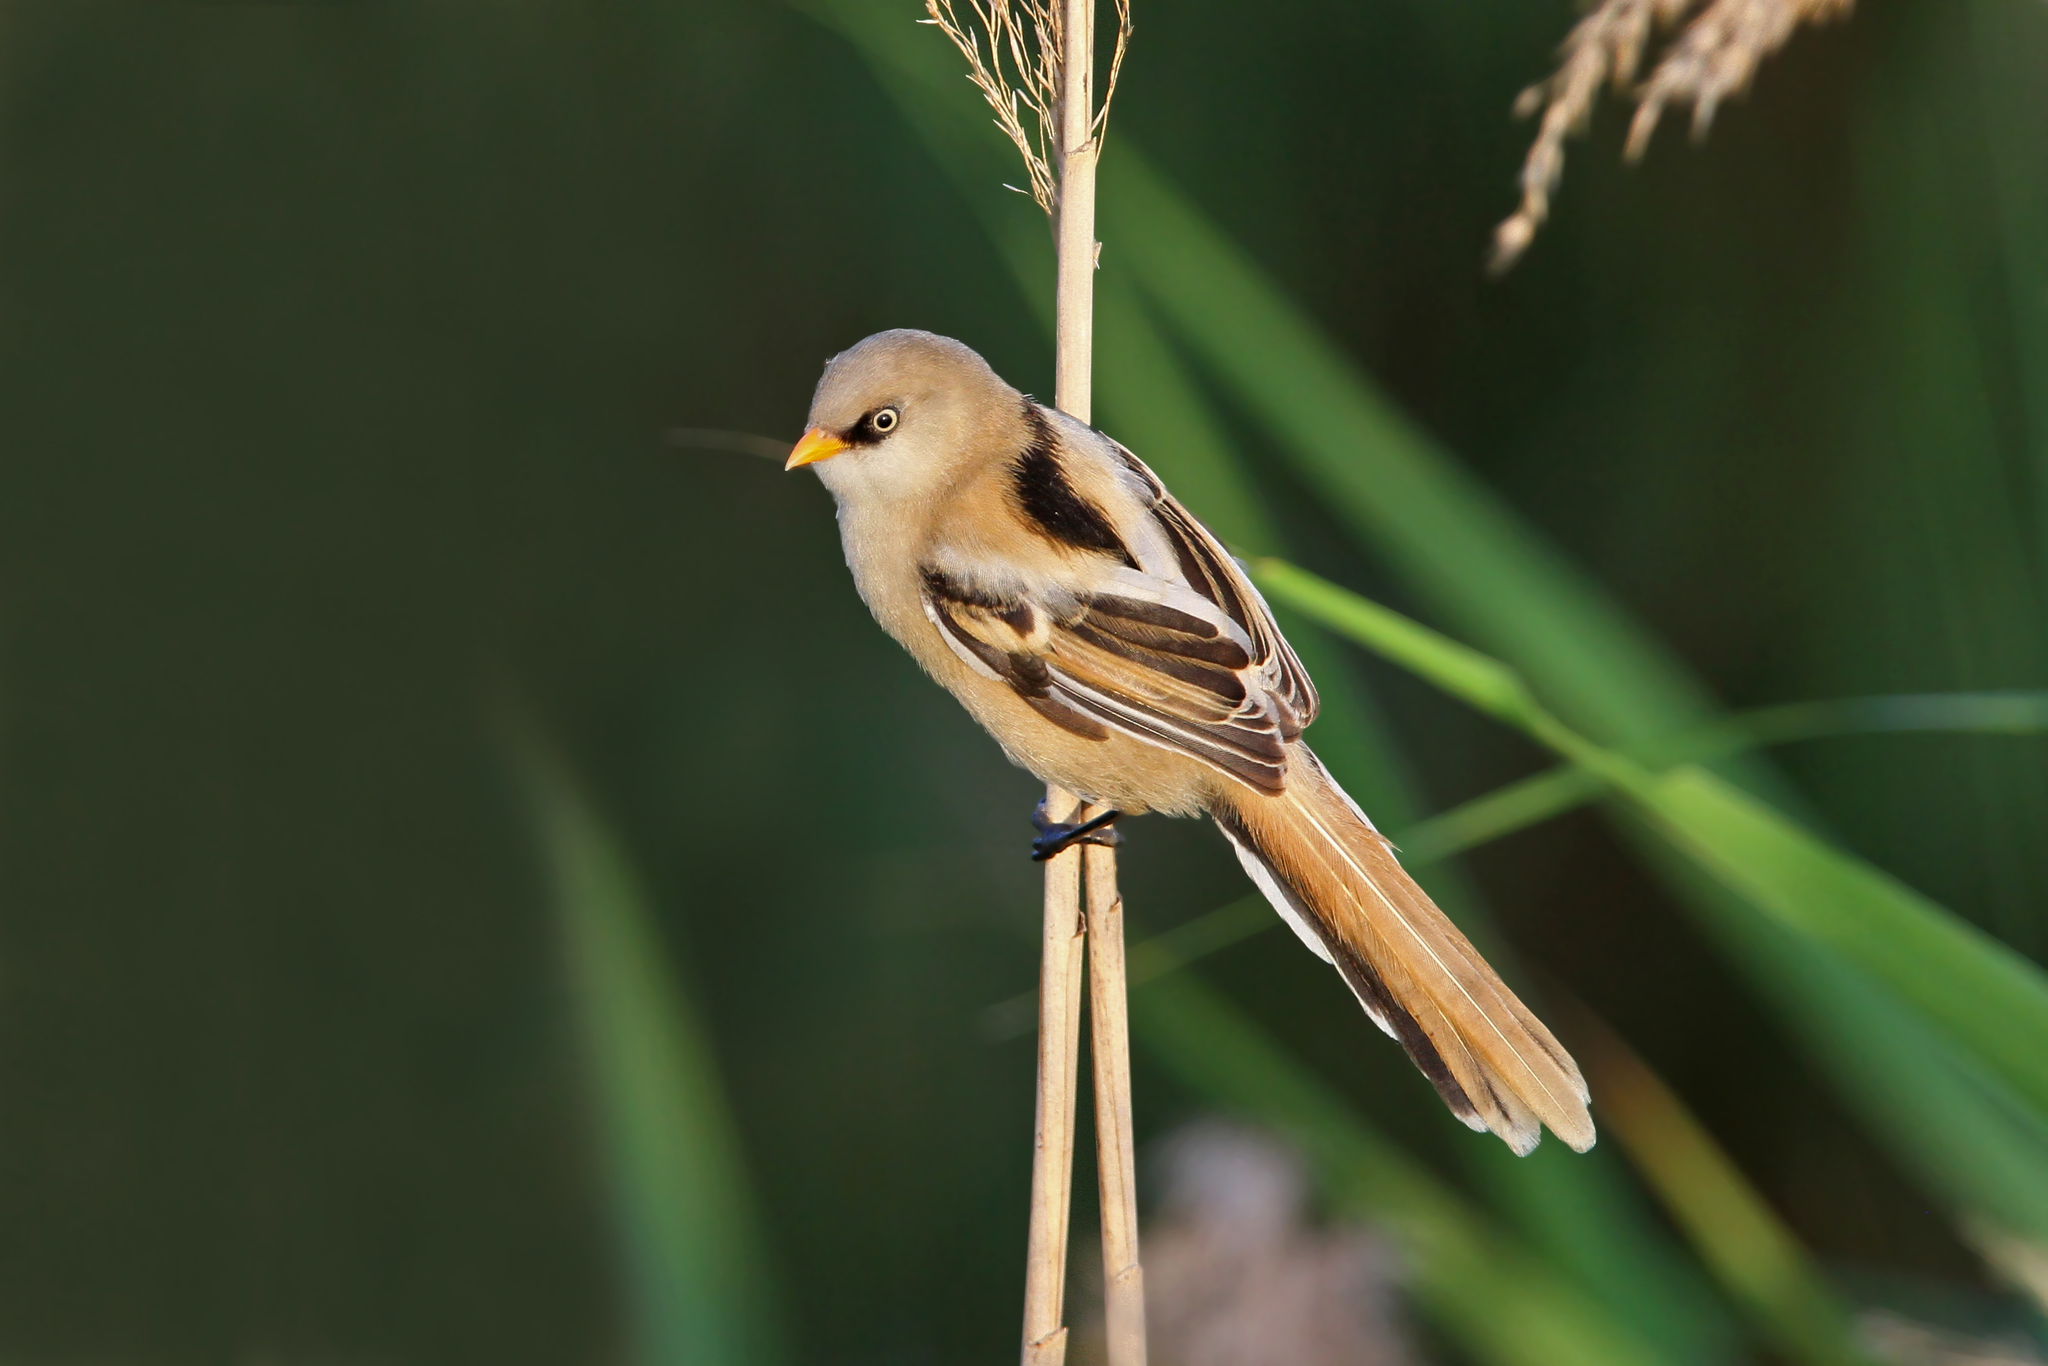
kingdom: Animalia
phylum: Chordata
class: Aves
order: Passeriformes
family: Panuridae
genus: Panurus
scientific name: Panurus biarmicus
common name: Bearded reedling
